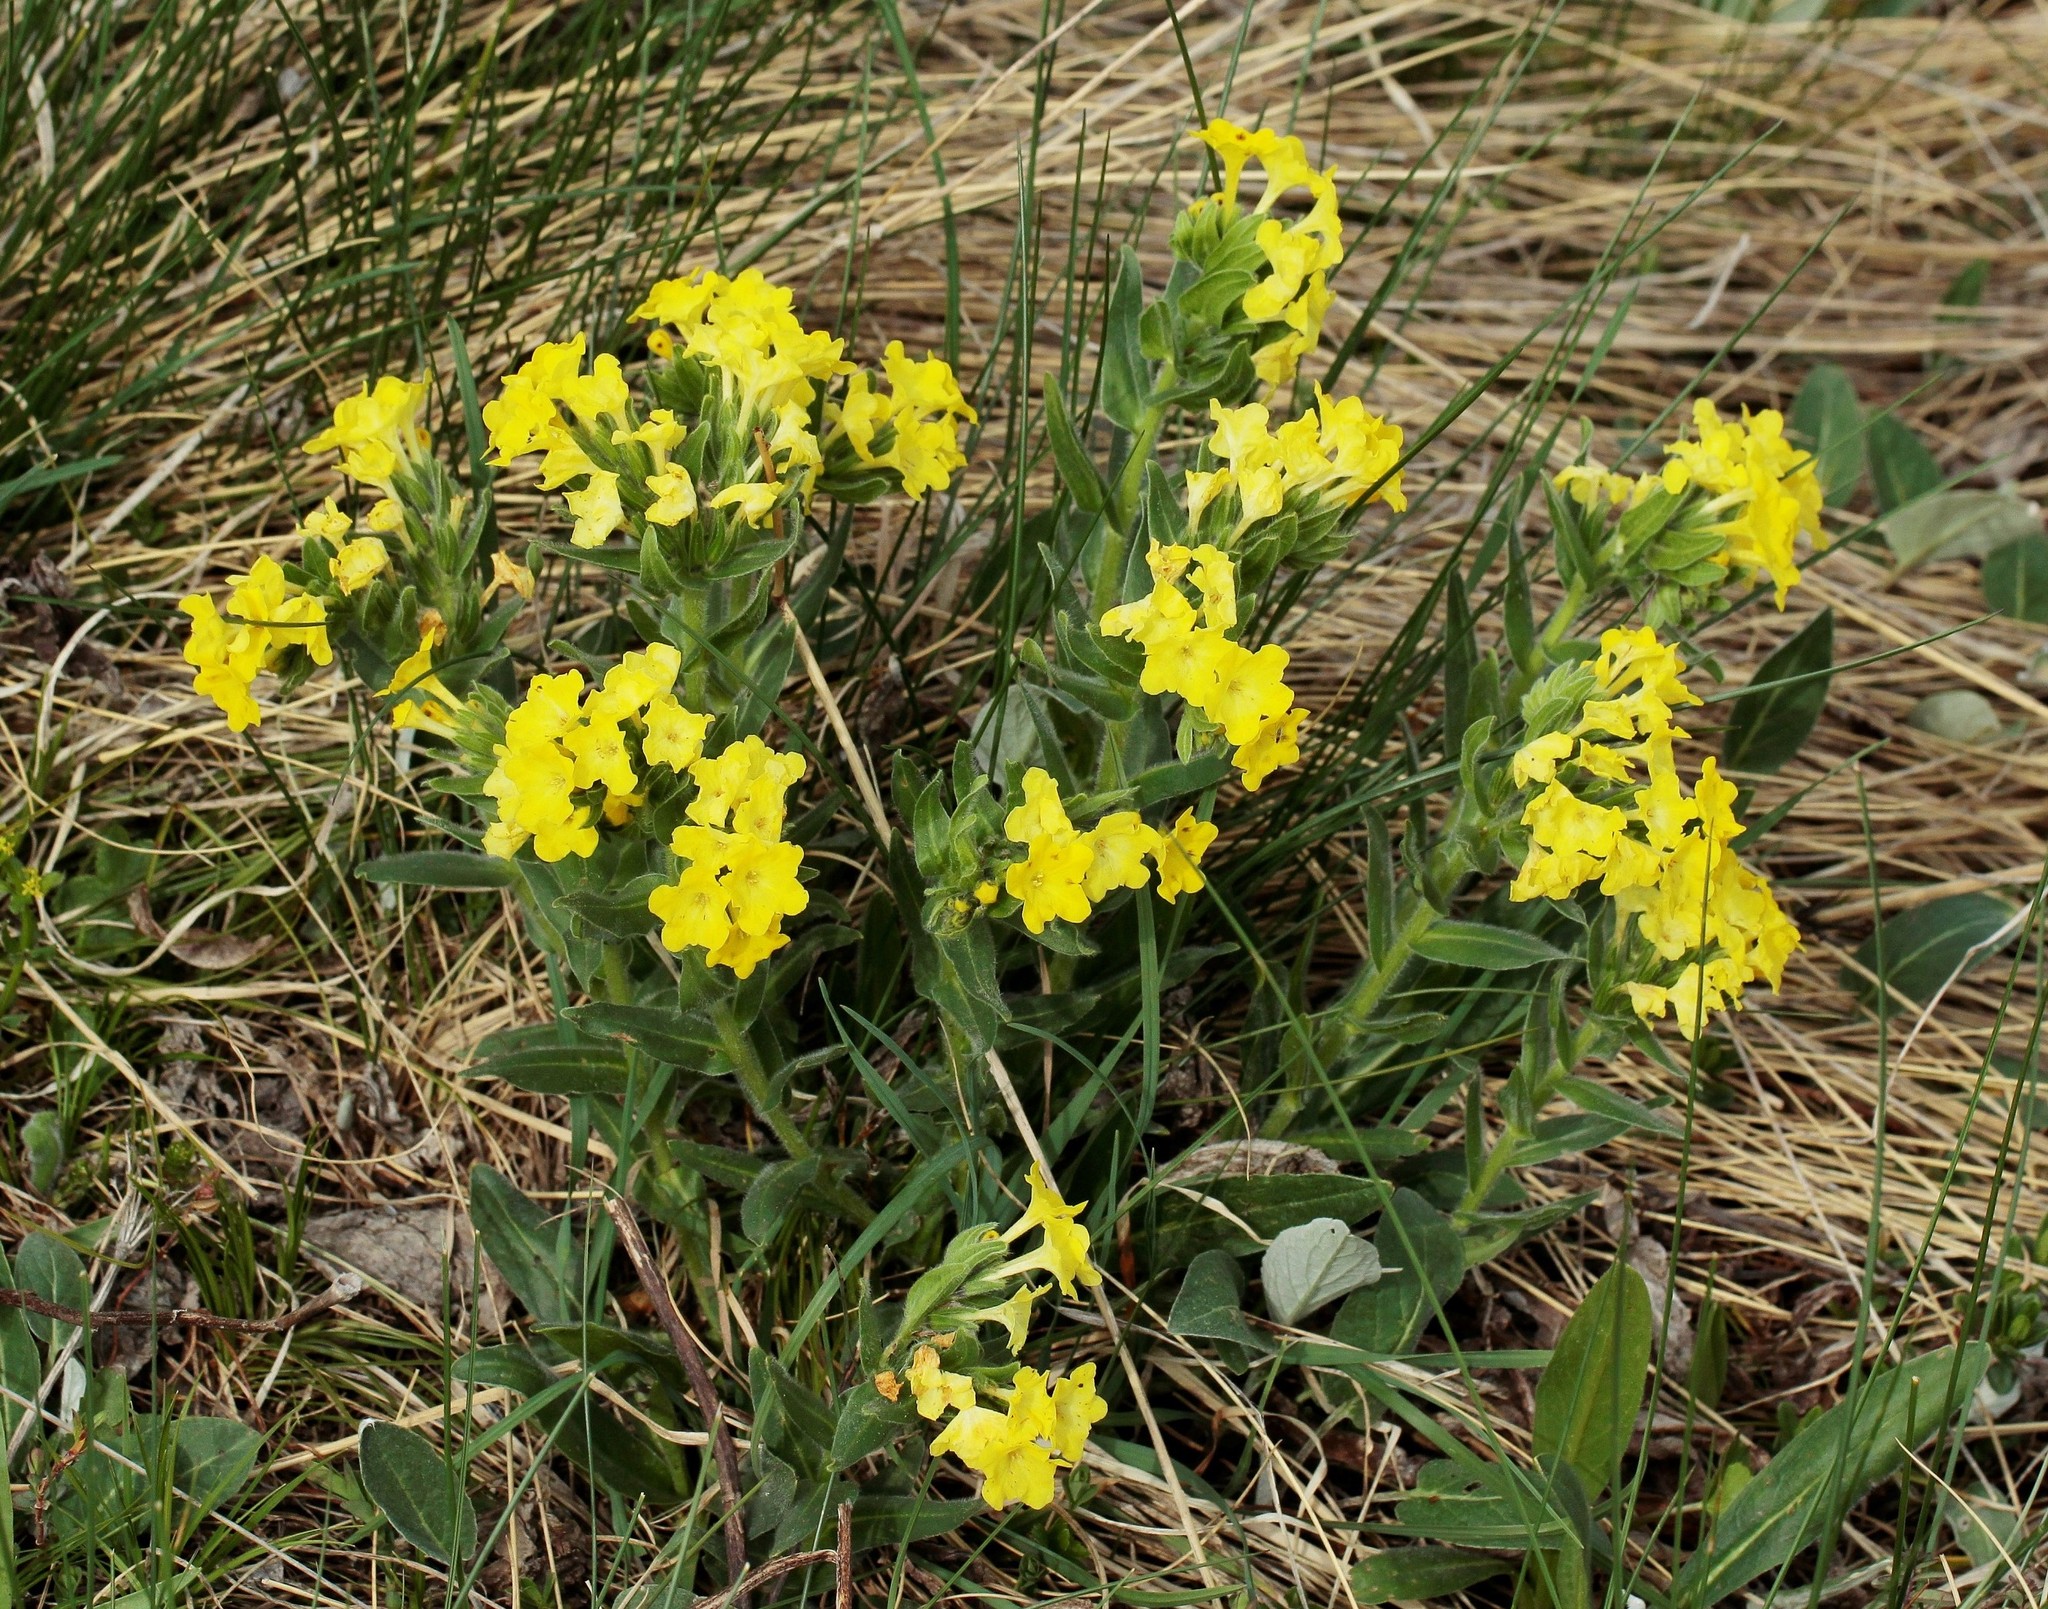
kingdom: Plantae
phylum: Tracheophyta
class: Magnoliopsida
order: Boraginales
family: Boraginaceae
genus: Huynhia
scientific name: Huynhia pulchra
